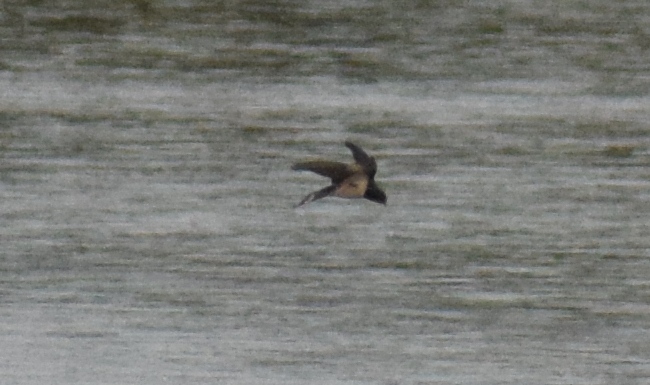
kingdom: Animalia
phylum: Chordata
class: Aves
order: Passeriformes
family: Hirundinidae
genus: Hirundo
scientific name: Hirundo rustica
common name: Barn swallow
